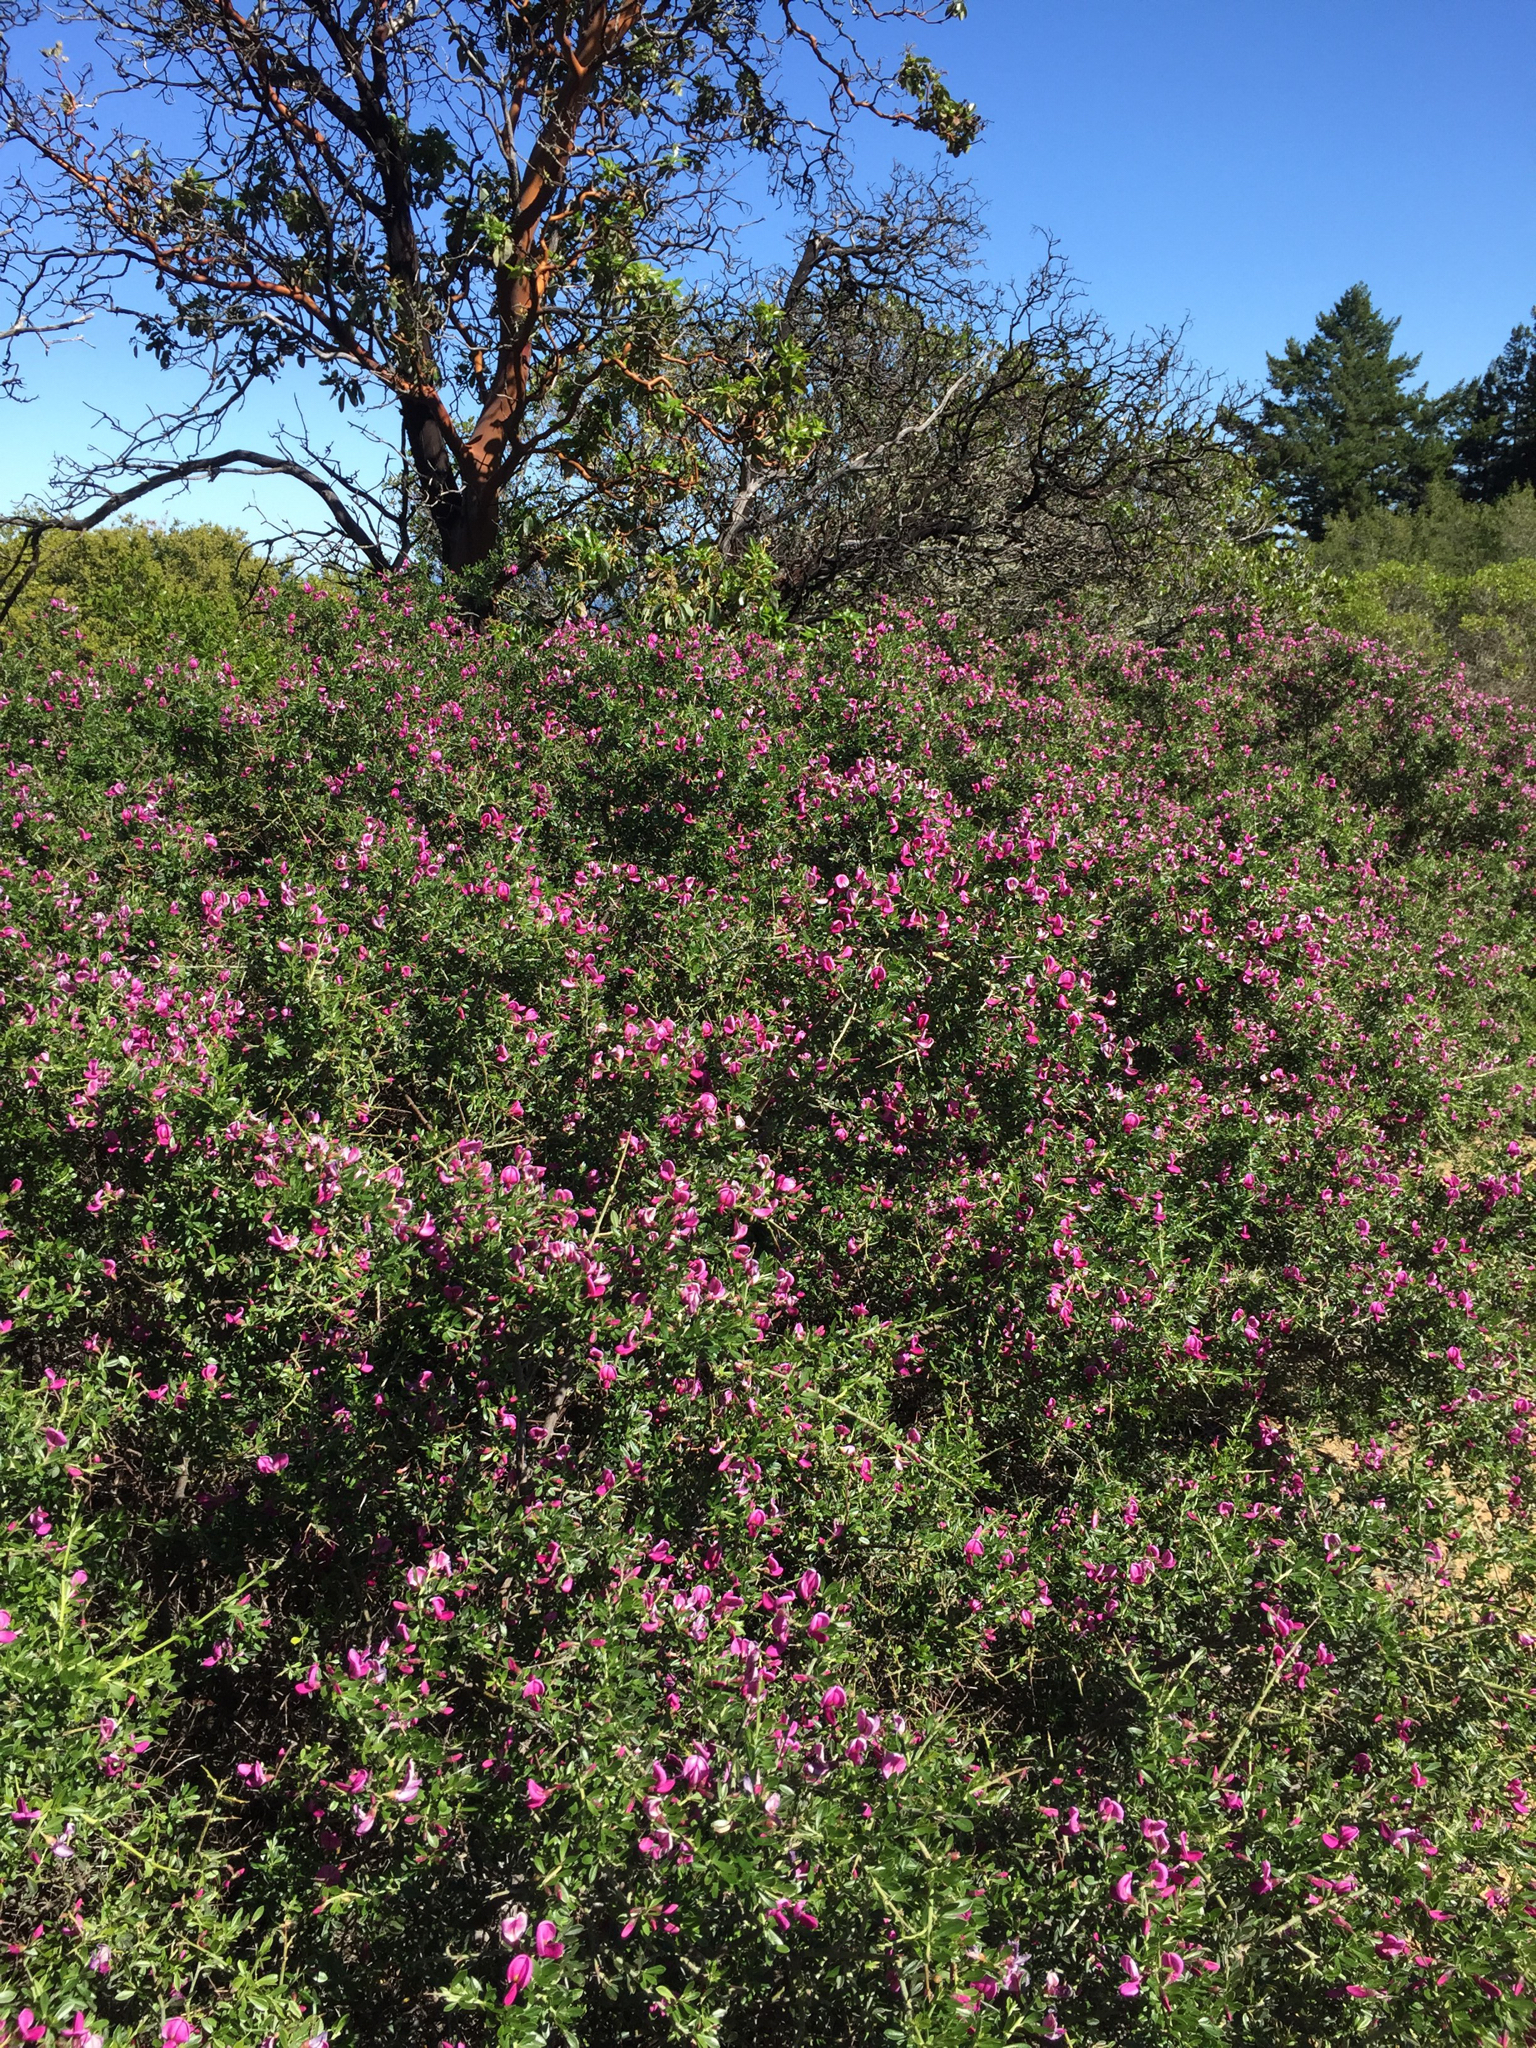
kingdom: Plantae
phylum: Tracheophyta
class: Magnoliopsida
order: Fabales
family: Fabaceae
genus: Pickeringia
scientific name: Pickeringia montana
